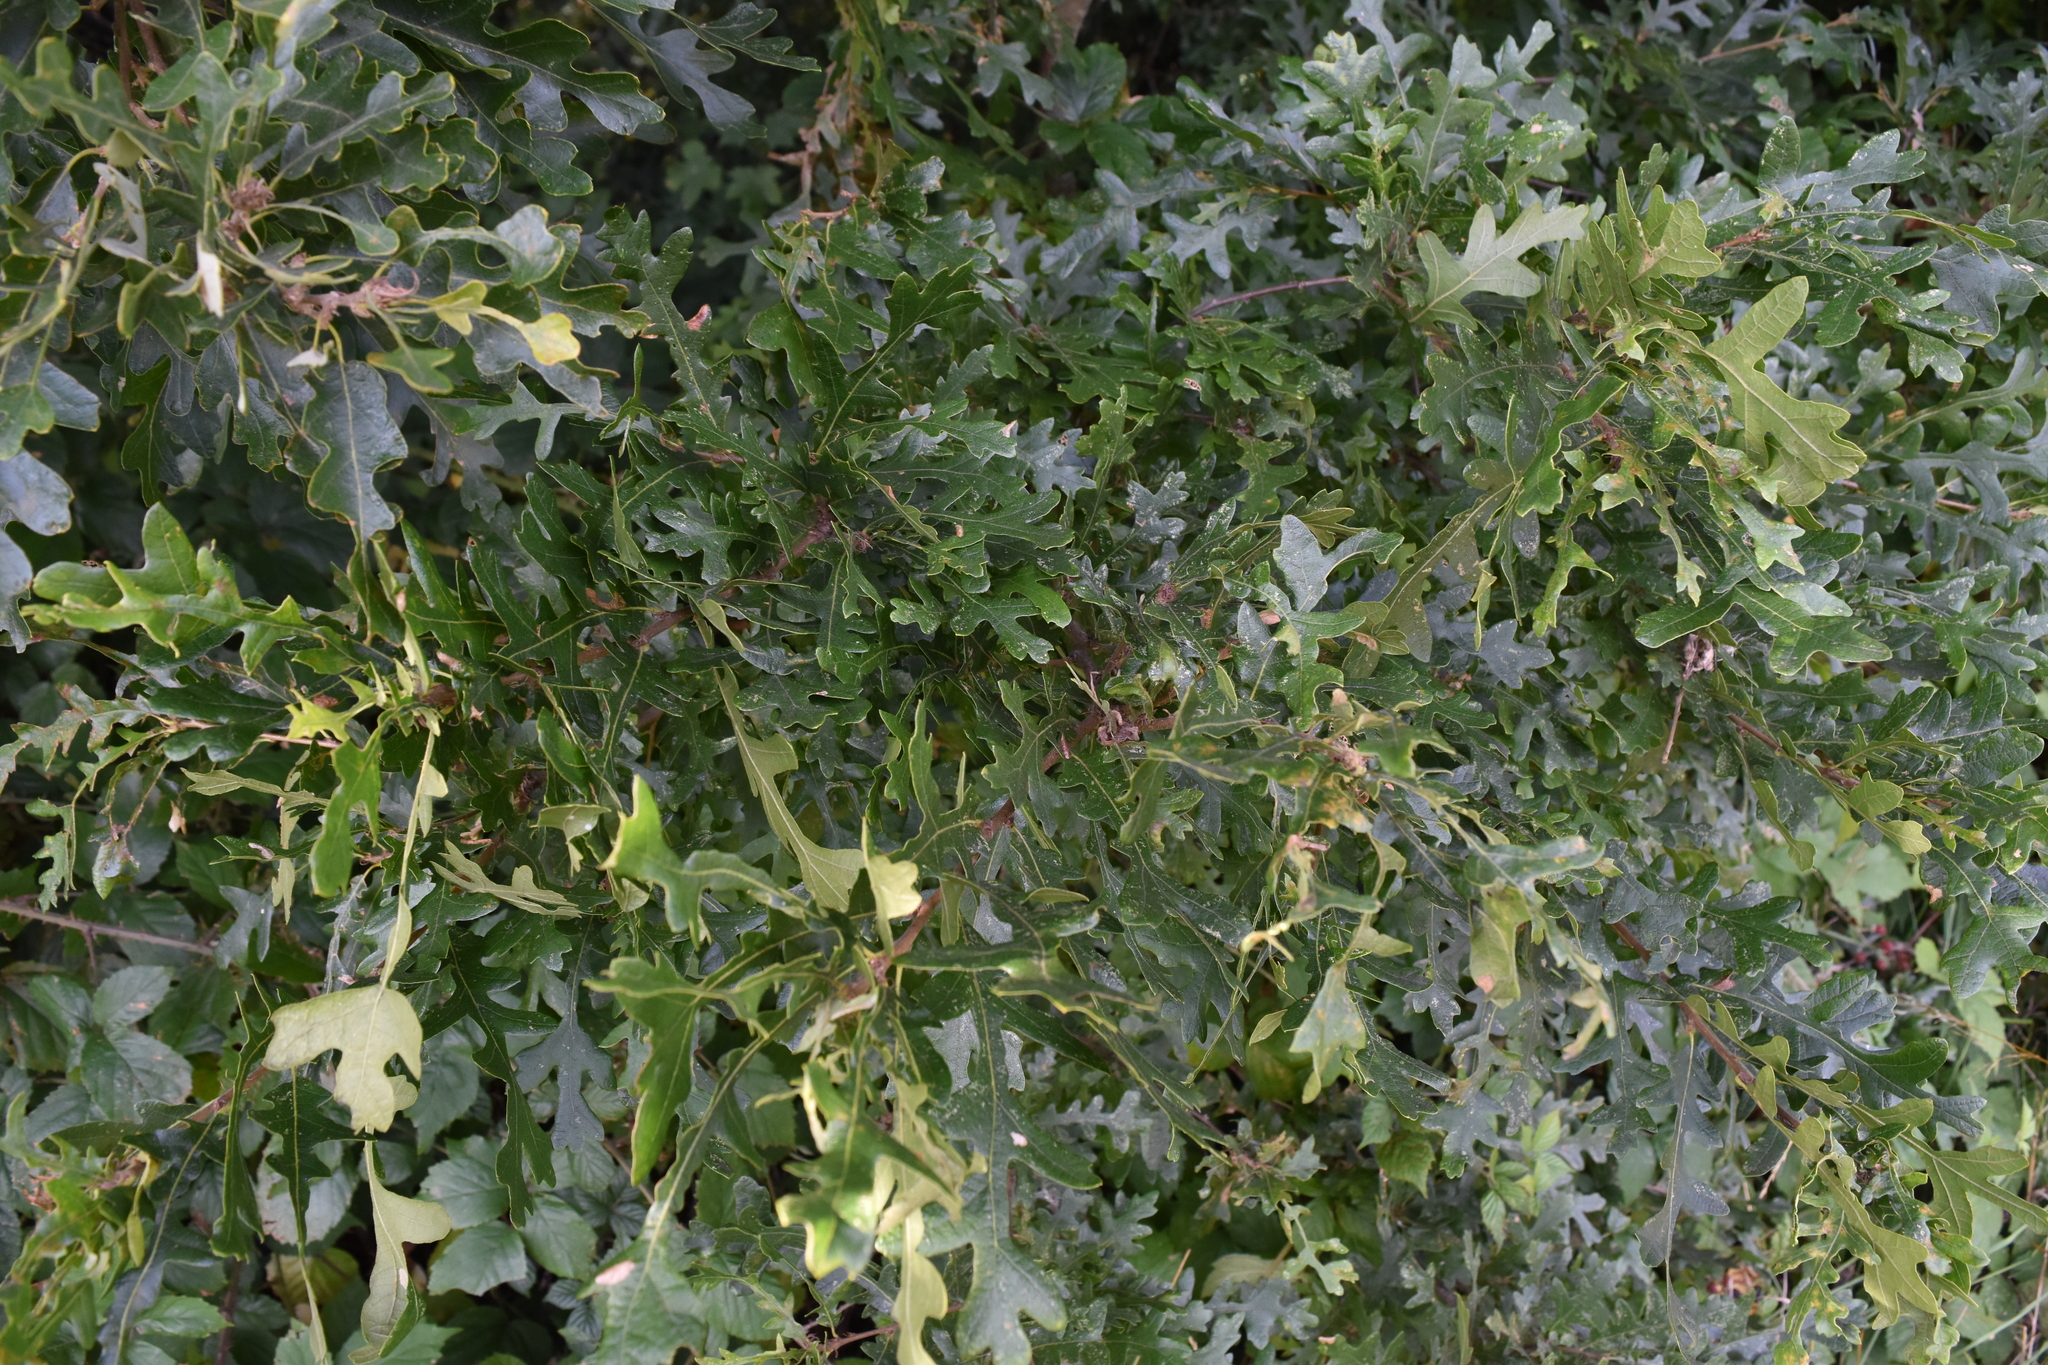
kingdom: Plantae
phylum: Tracheophyta
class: Magnoliopsida
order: Fagales
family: Fagaceae
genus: Quercus
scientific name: Quercus cerris
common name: Turkey oak
